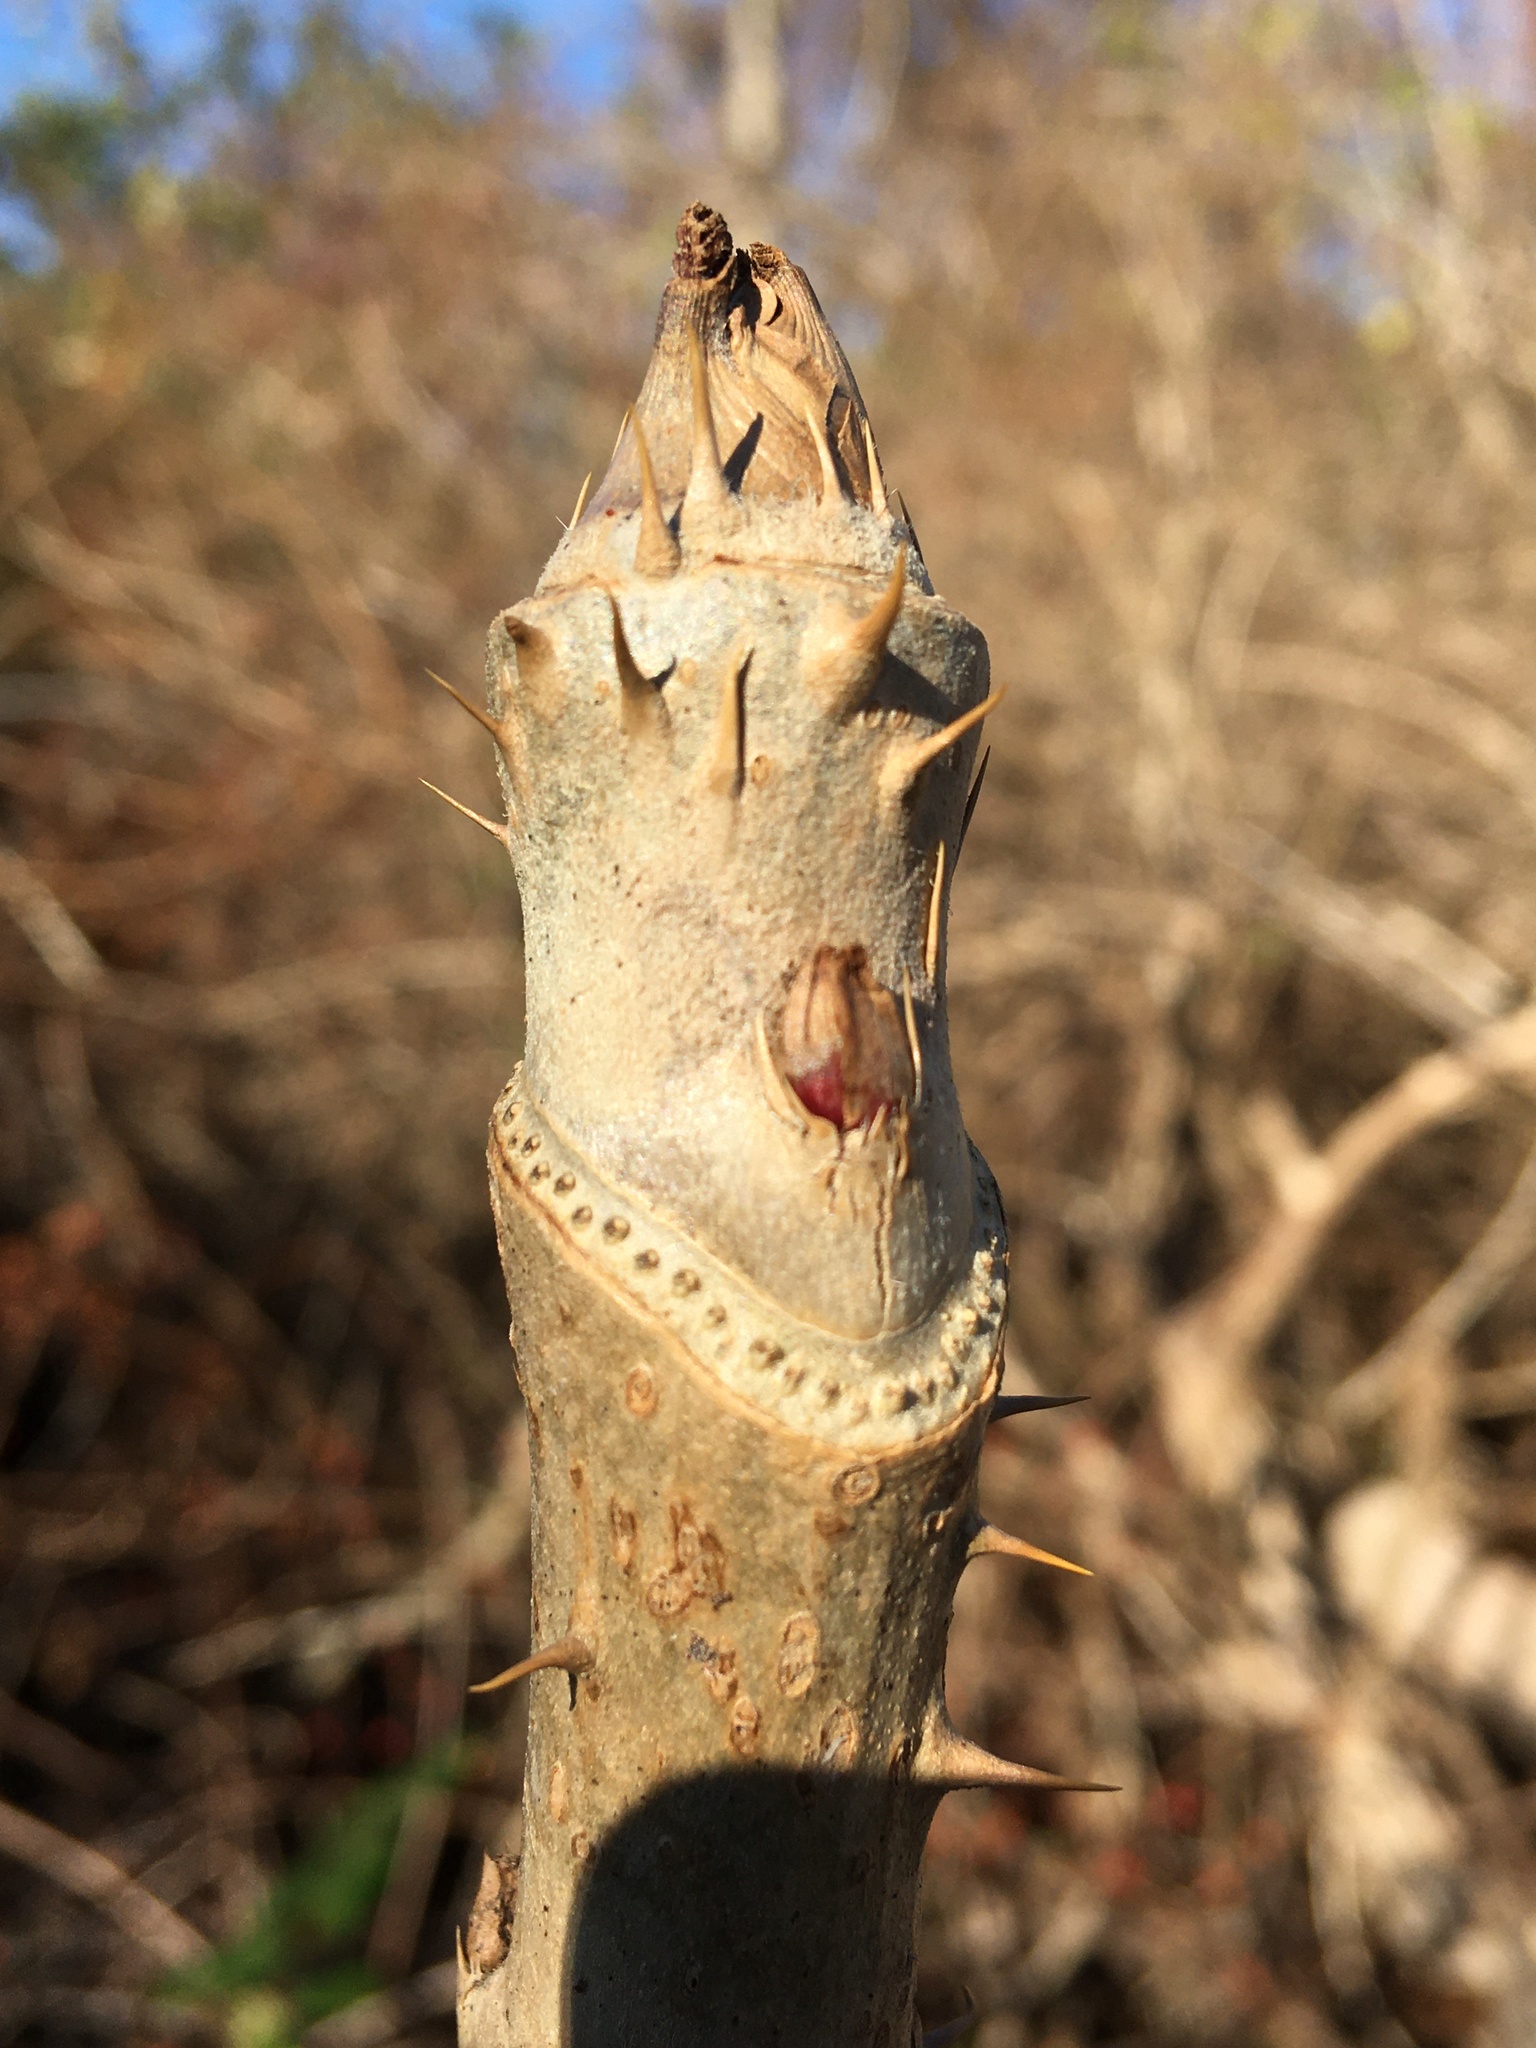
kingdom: Plantae
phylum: Tracheophyta
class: Magnoliopsida
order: Apiales
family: Araliaceae
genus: Aralia
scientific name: Aralia elata
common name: Japanese angelica-tree
